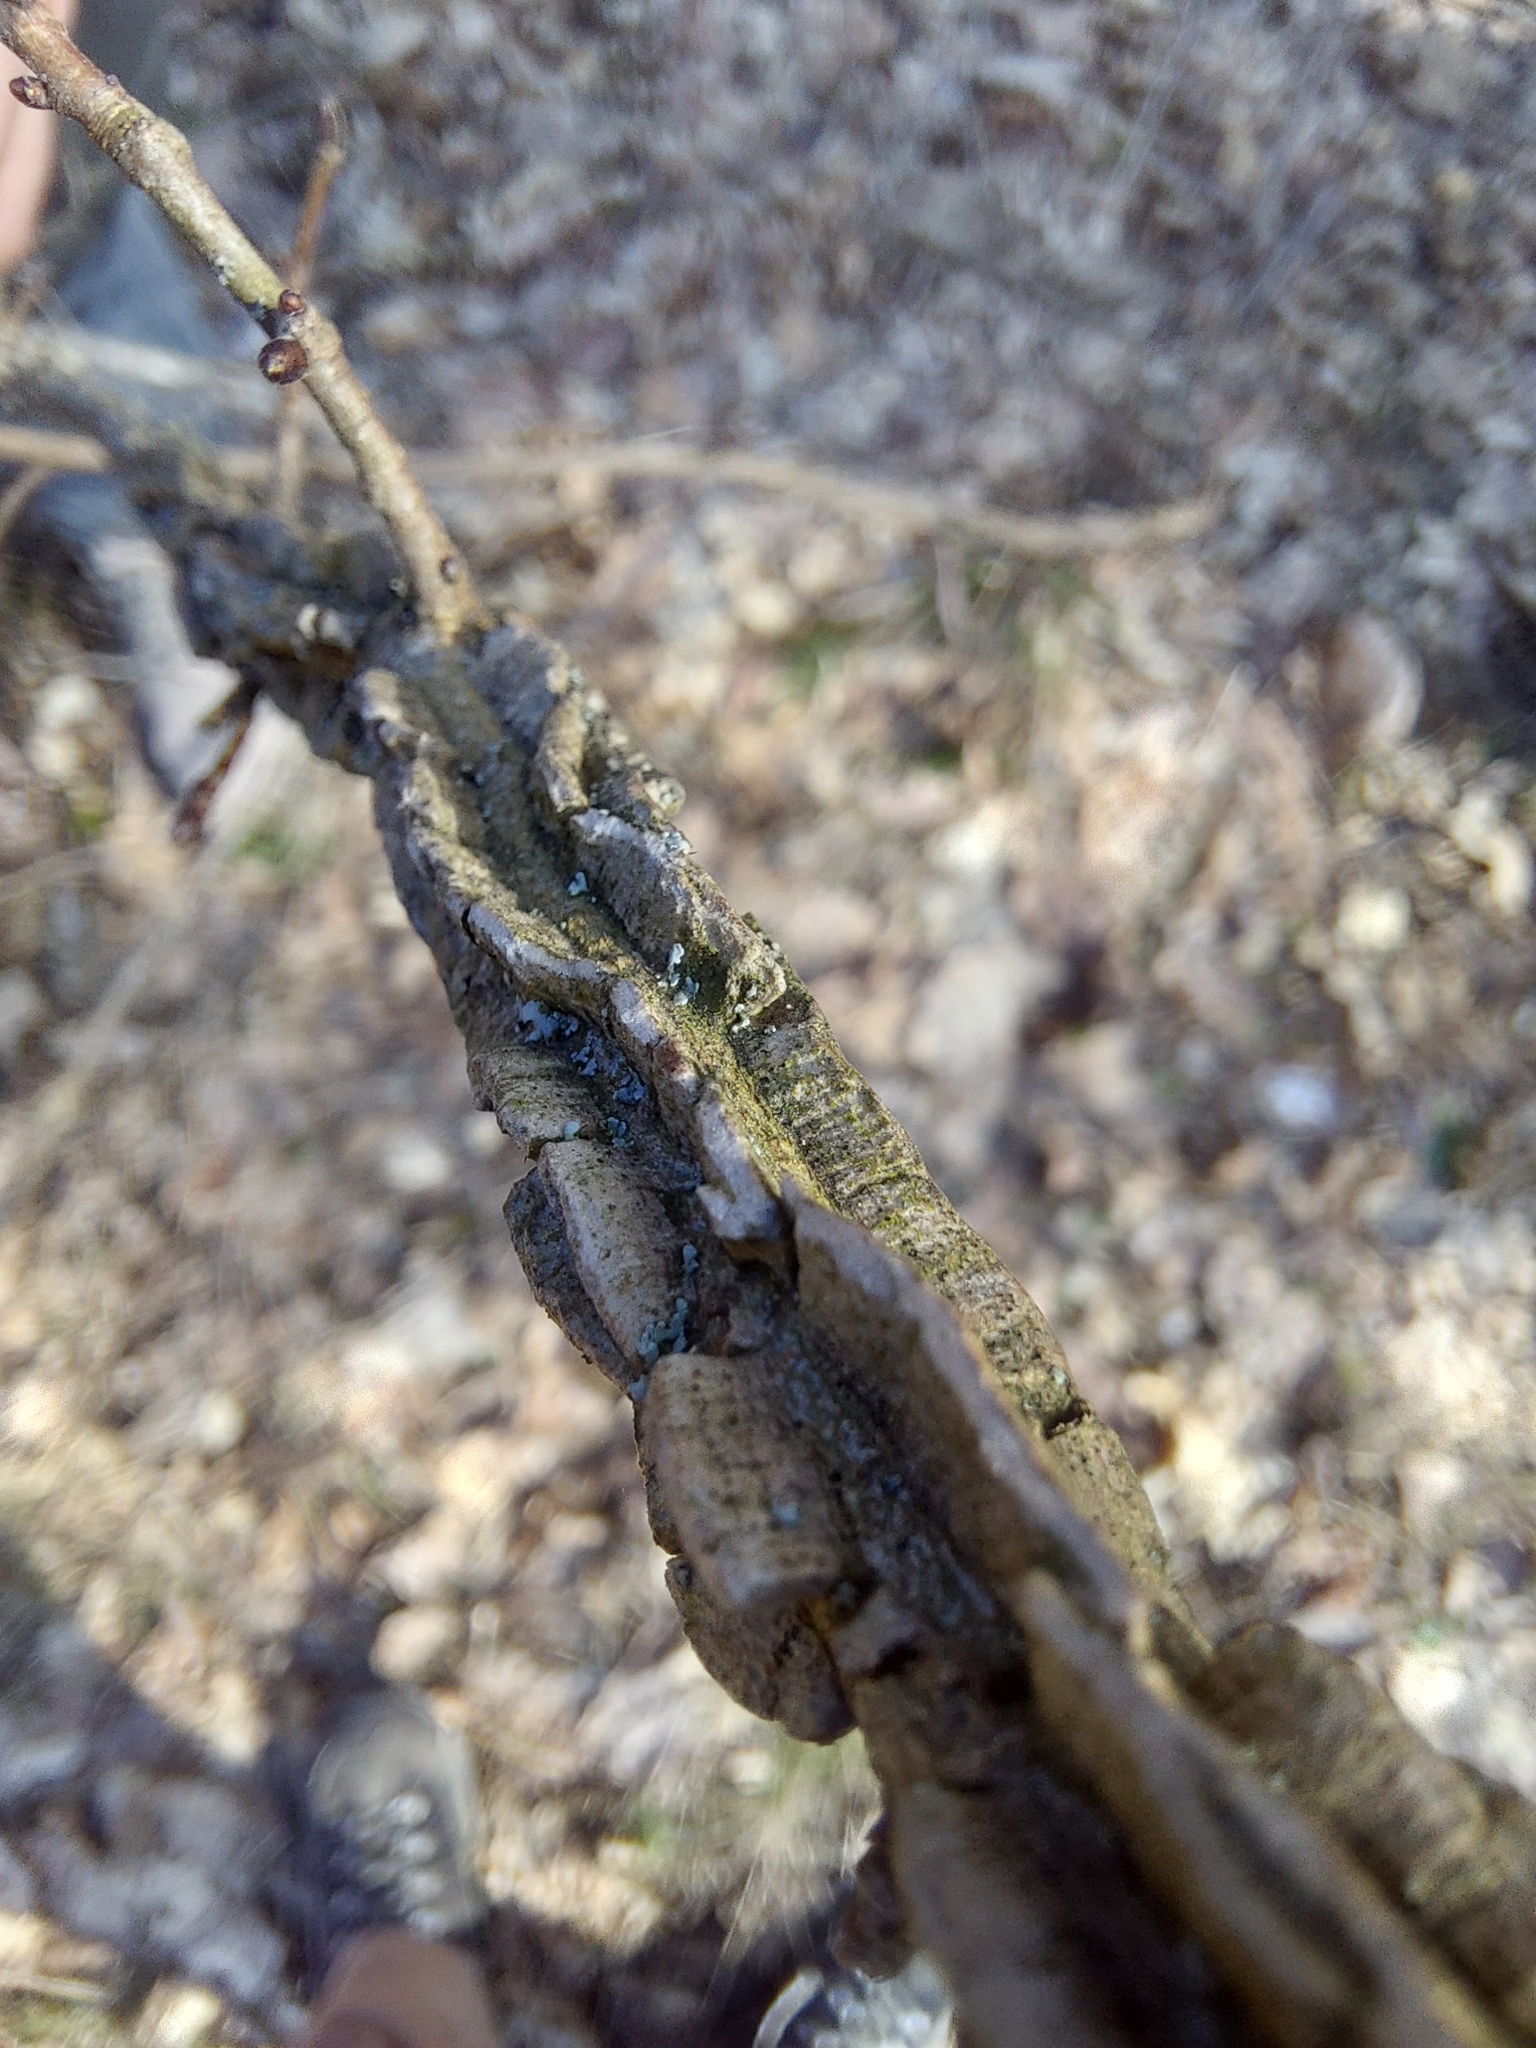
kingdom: Plantae
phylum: Tracheophyta
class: Magnoliopsida
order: Rosales
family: Ulmaceae
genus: Ulmus
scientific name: Ulmus minor
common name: Small-leaved elm
